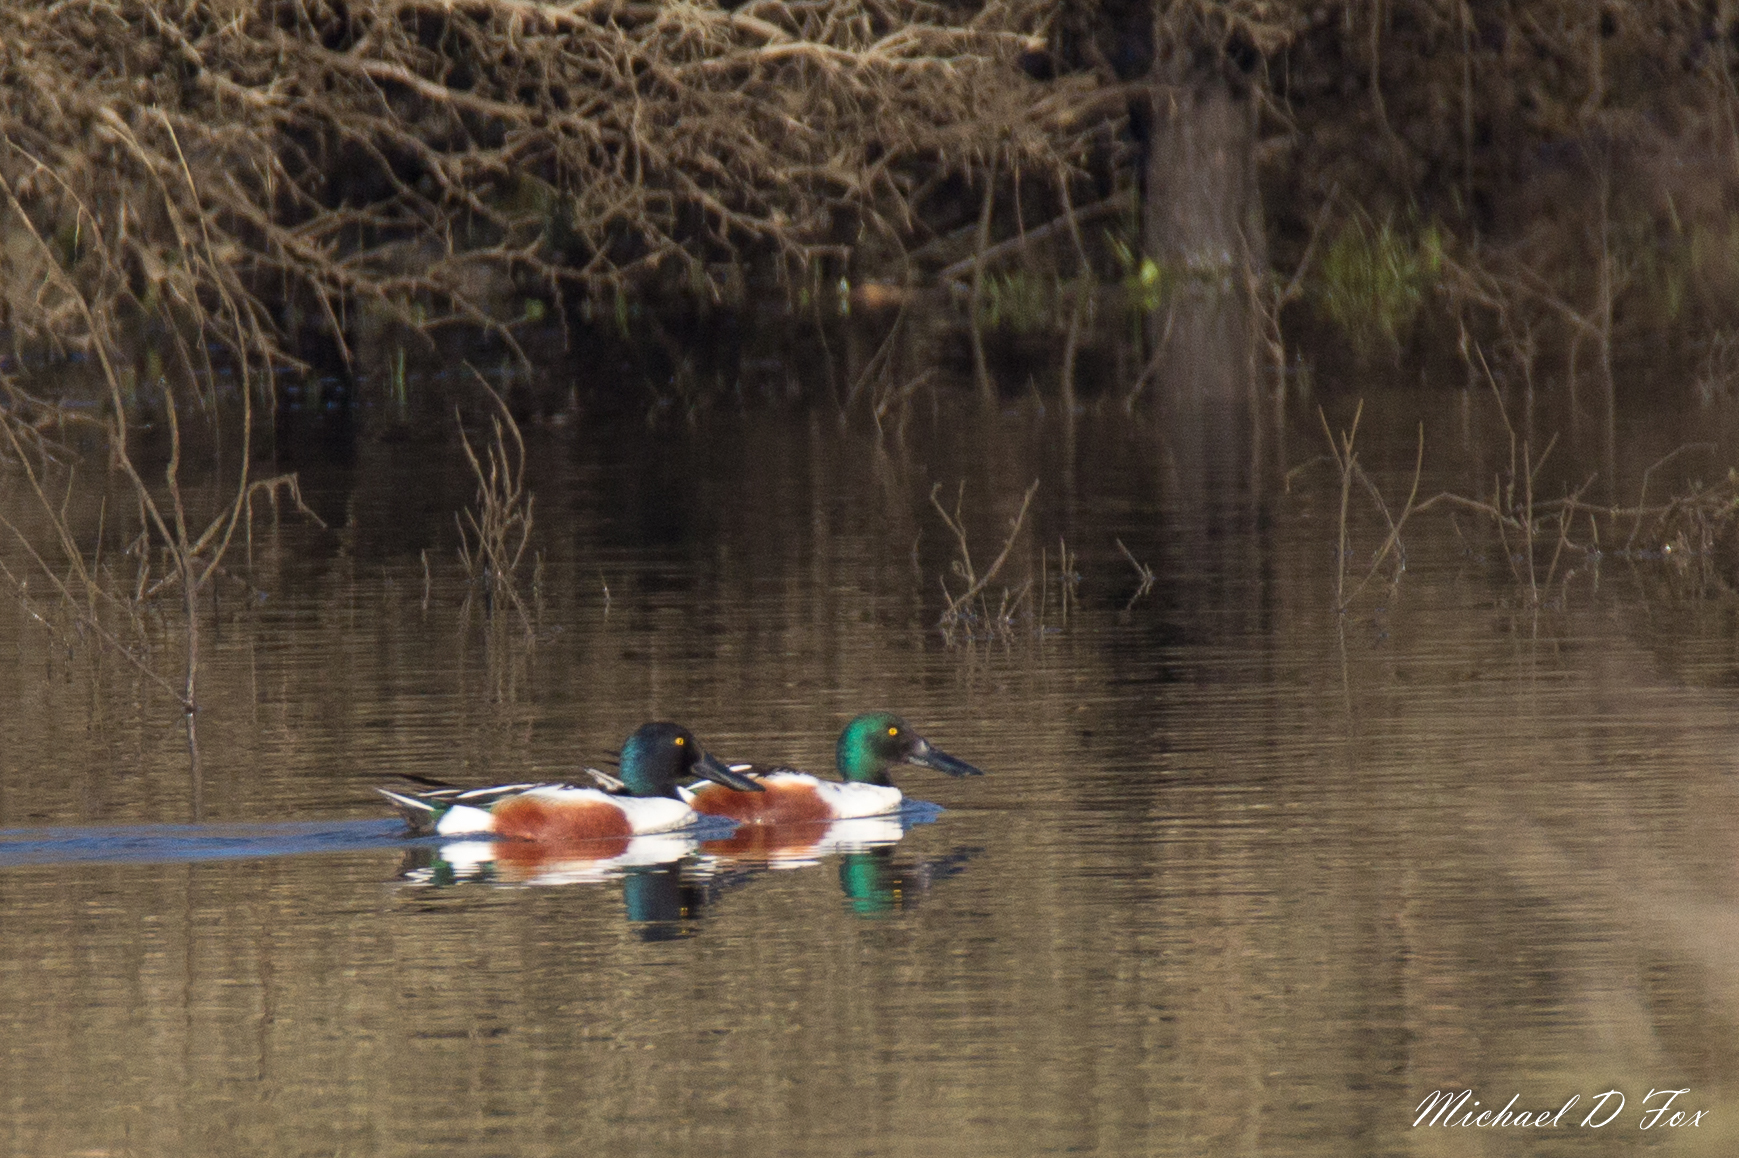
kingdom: Animalia
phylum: Chordata
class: Aves
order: Anseriformes
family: Anatidae
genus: Spatula
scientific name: Spatula clypeata
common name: Northern shoveler
